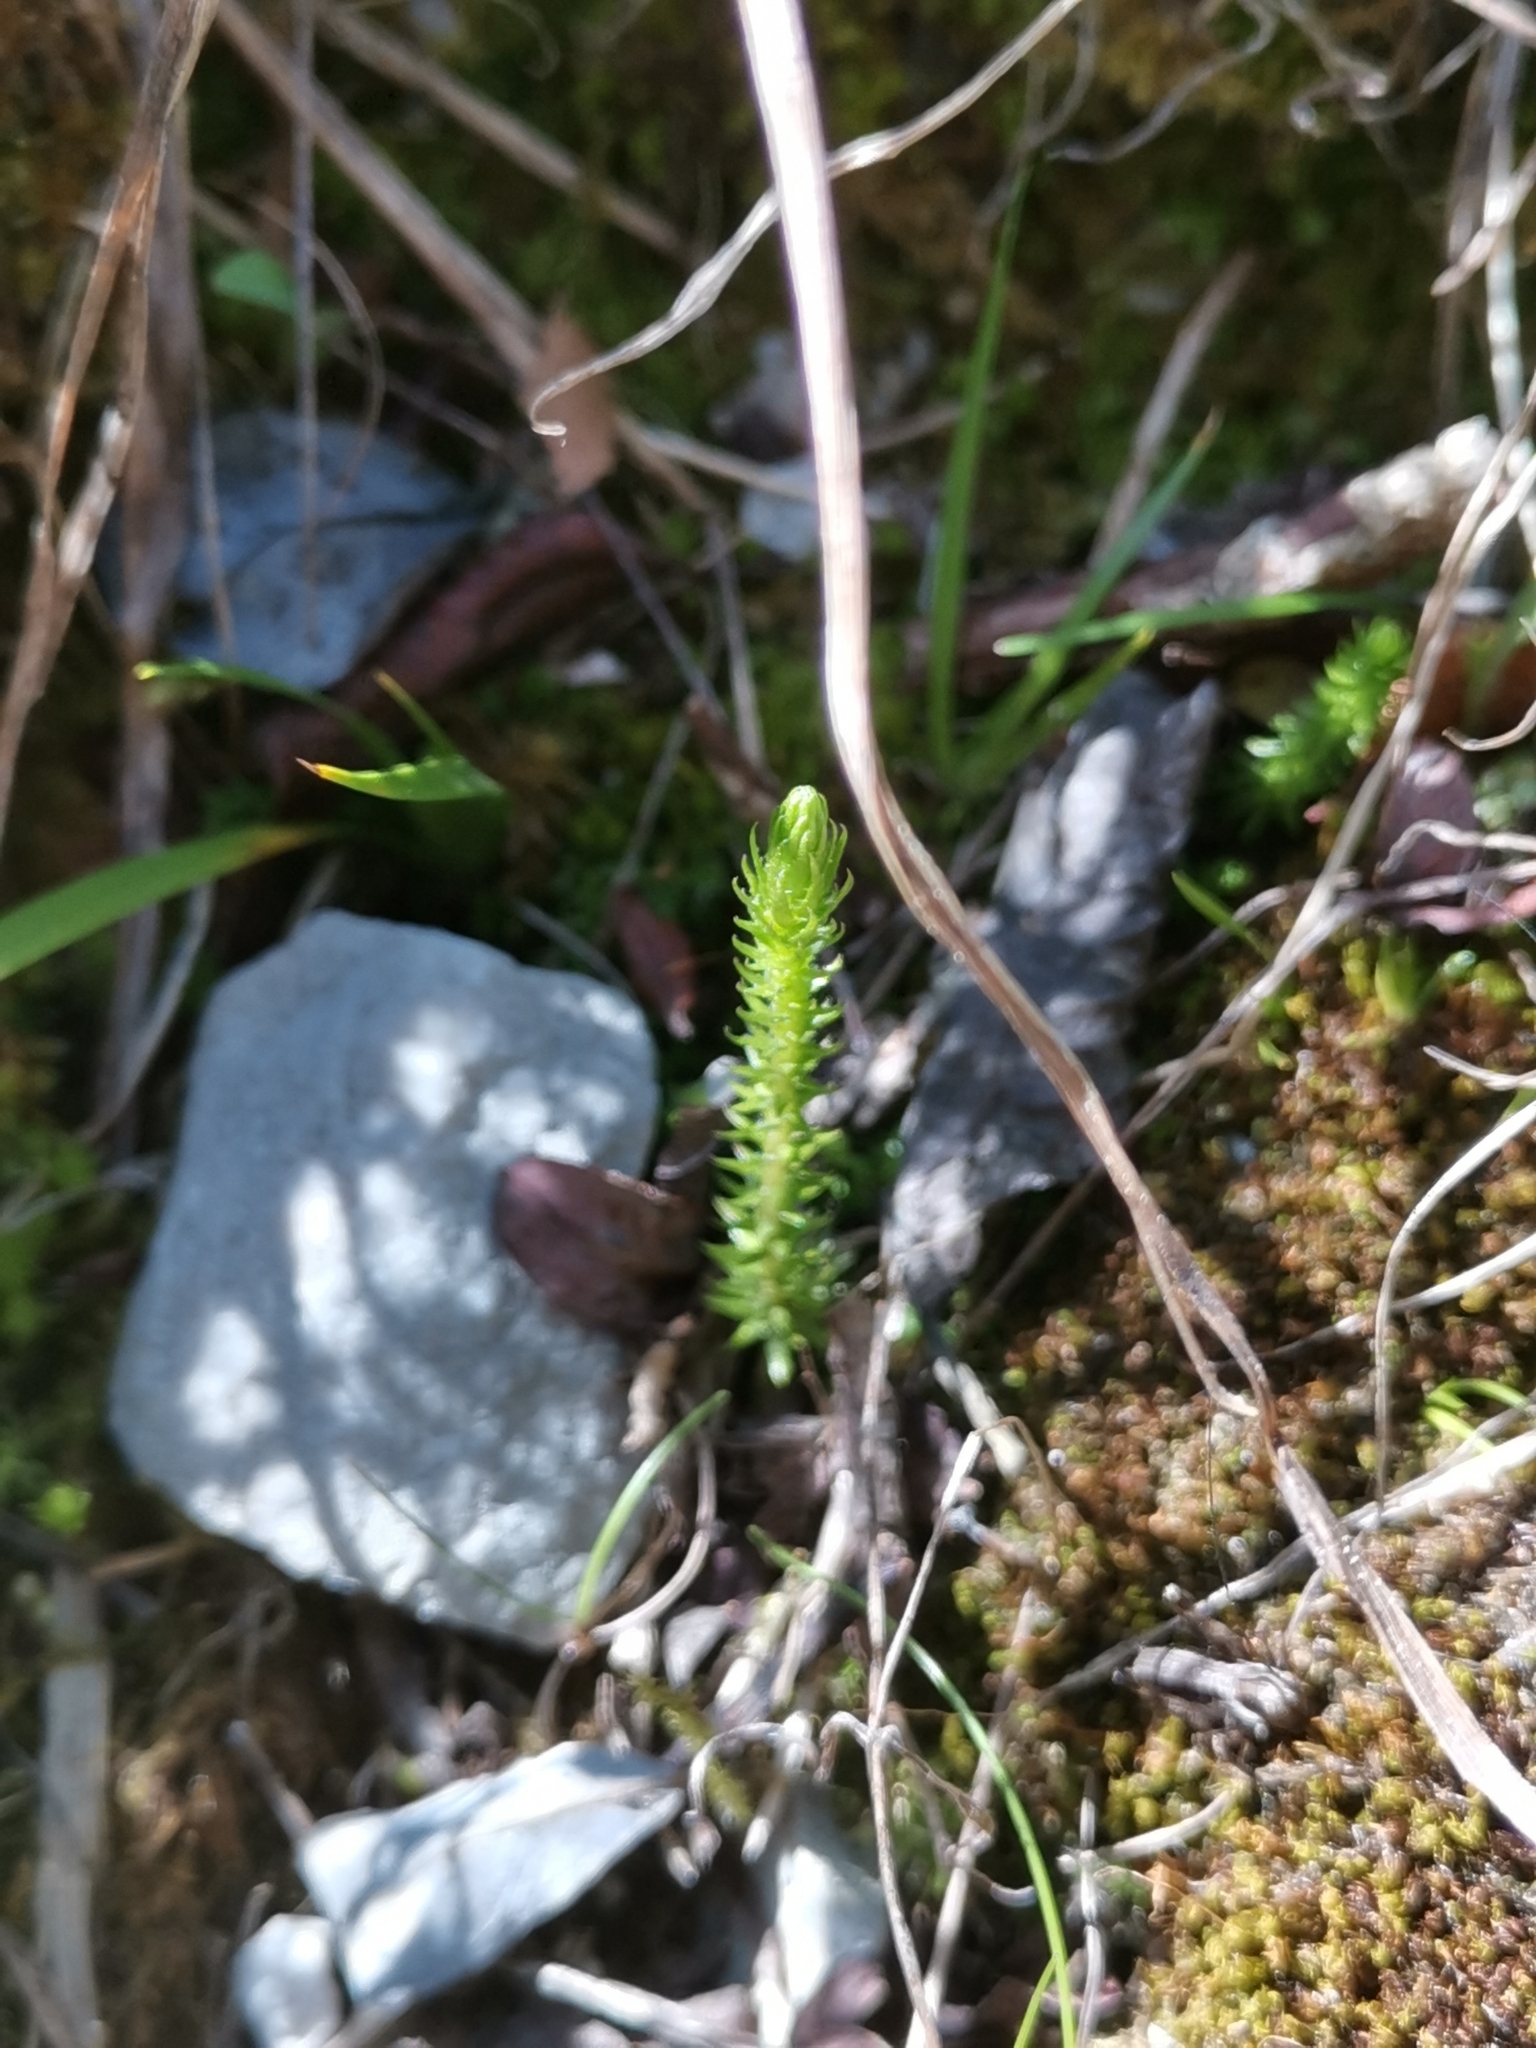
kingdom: Plantae
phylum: Tracheophyta
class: Lycopodiopsida
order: Selaginellales
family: Selaginellaceae
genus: Selaginella
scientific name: Selaginella selaginoides
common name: Prickly mountain-moss
